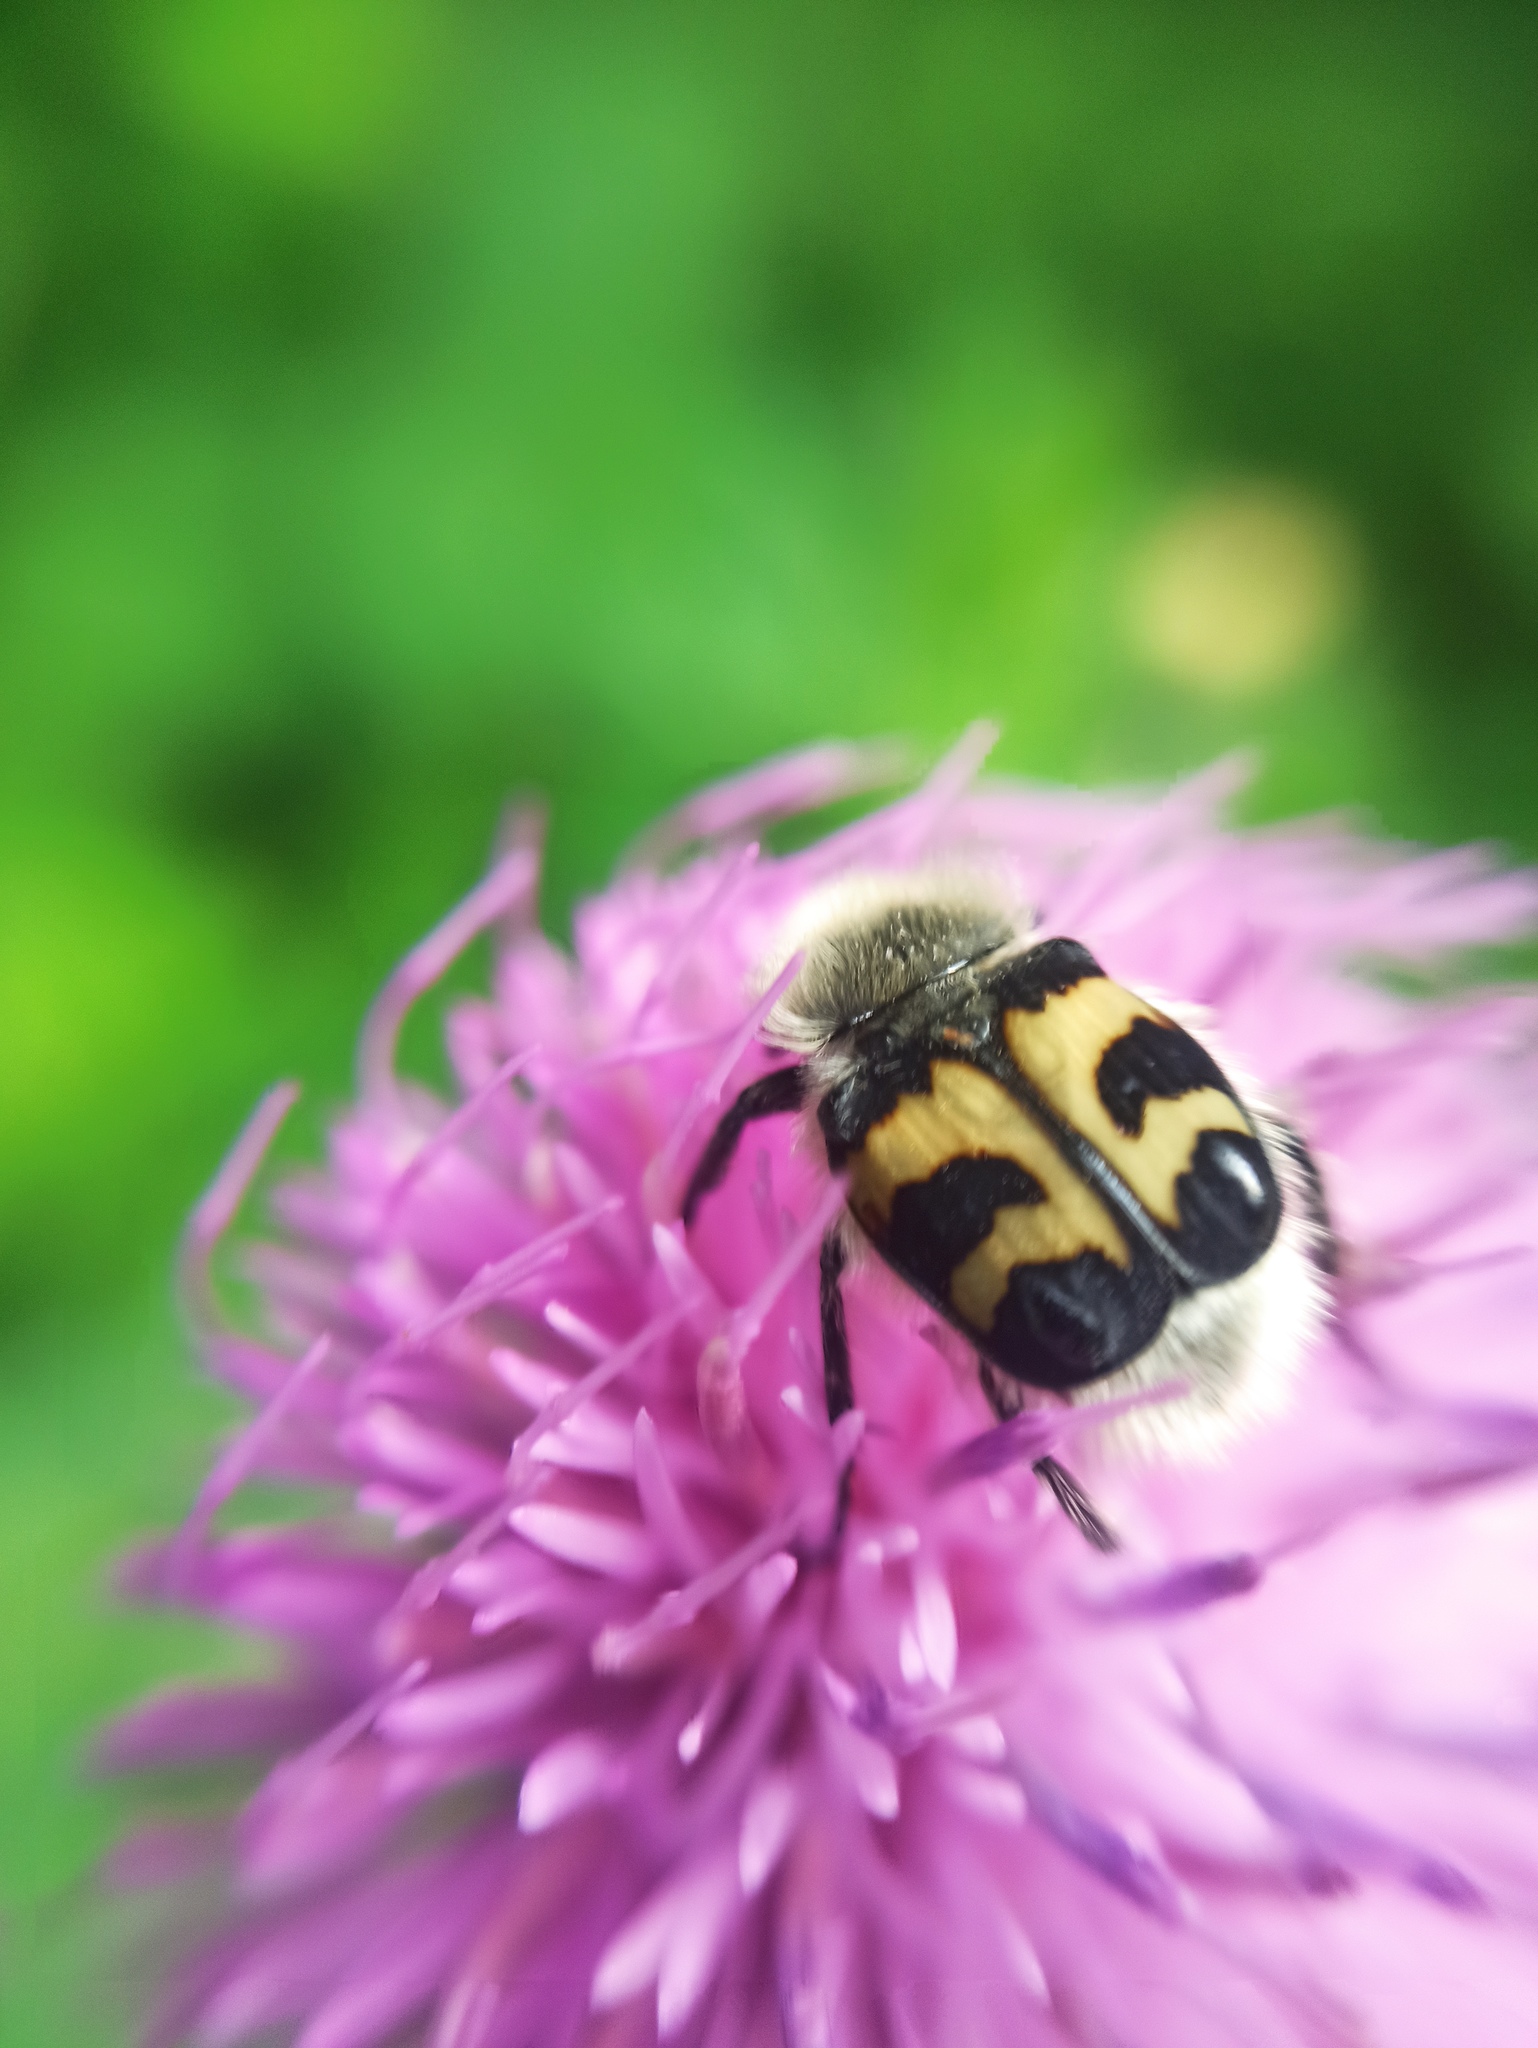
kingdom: Animalia
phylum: Arthropoda
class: Insecta
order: Coleoptera
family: Scarabaeidae
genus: Trichius
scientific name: Trichius fasciatus
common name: Bee beetle
